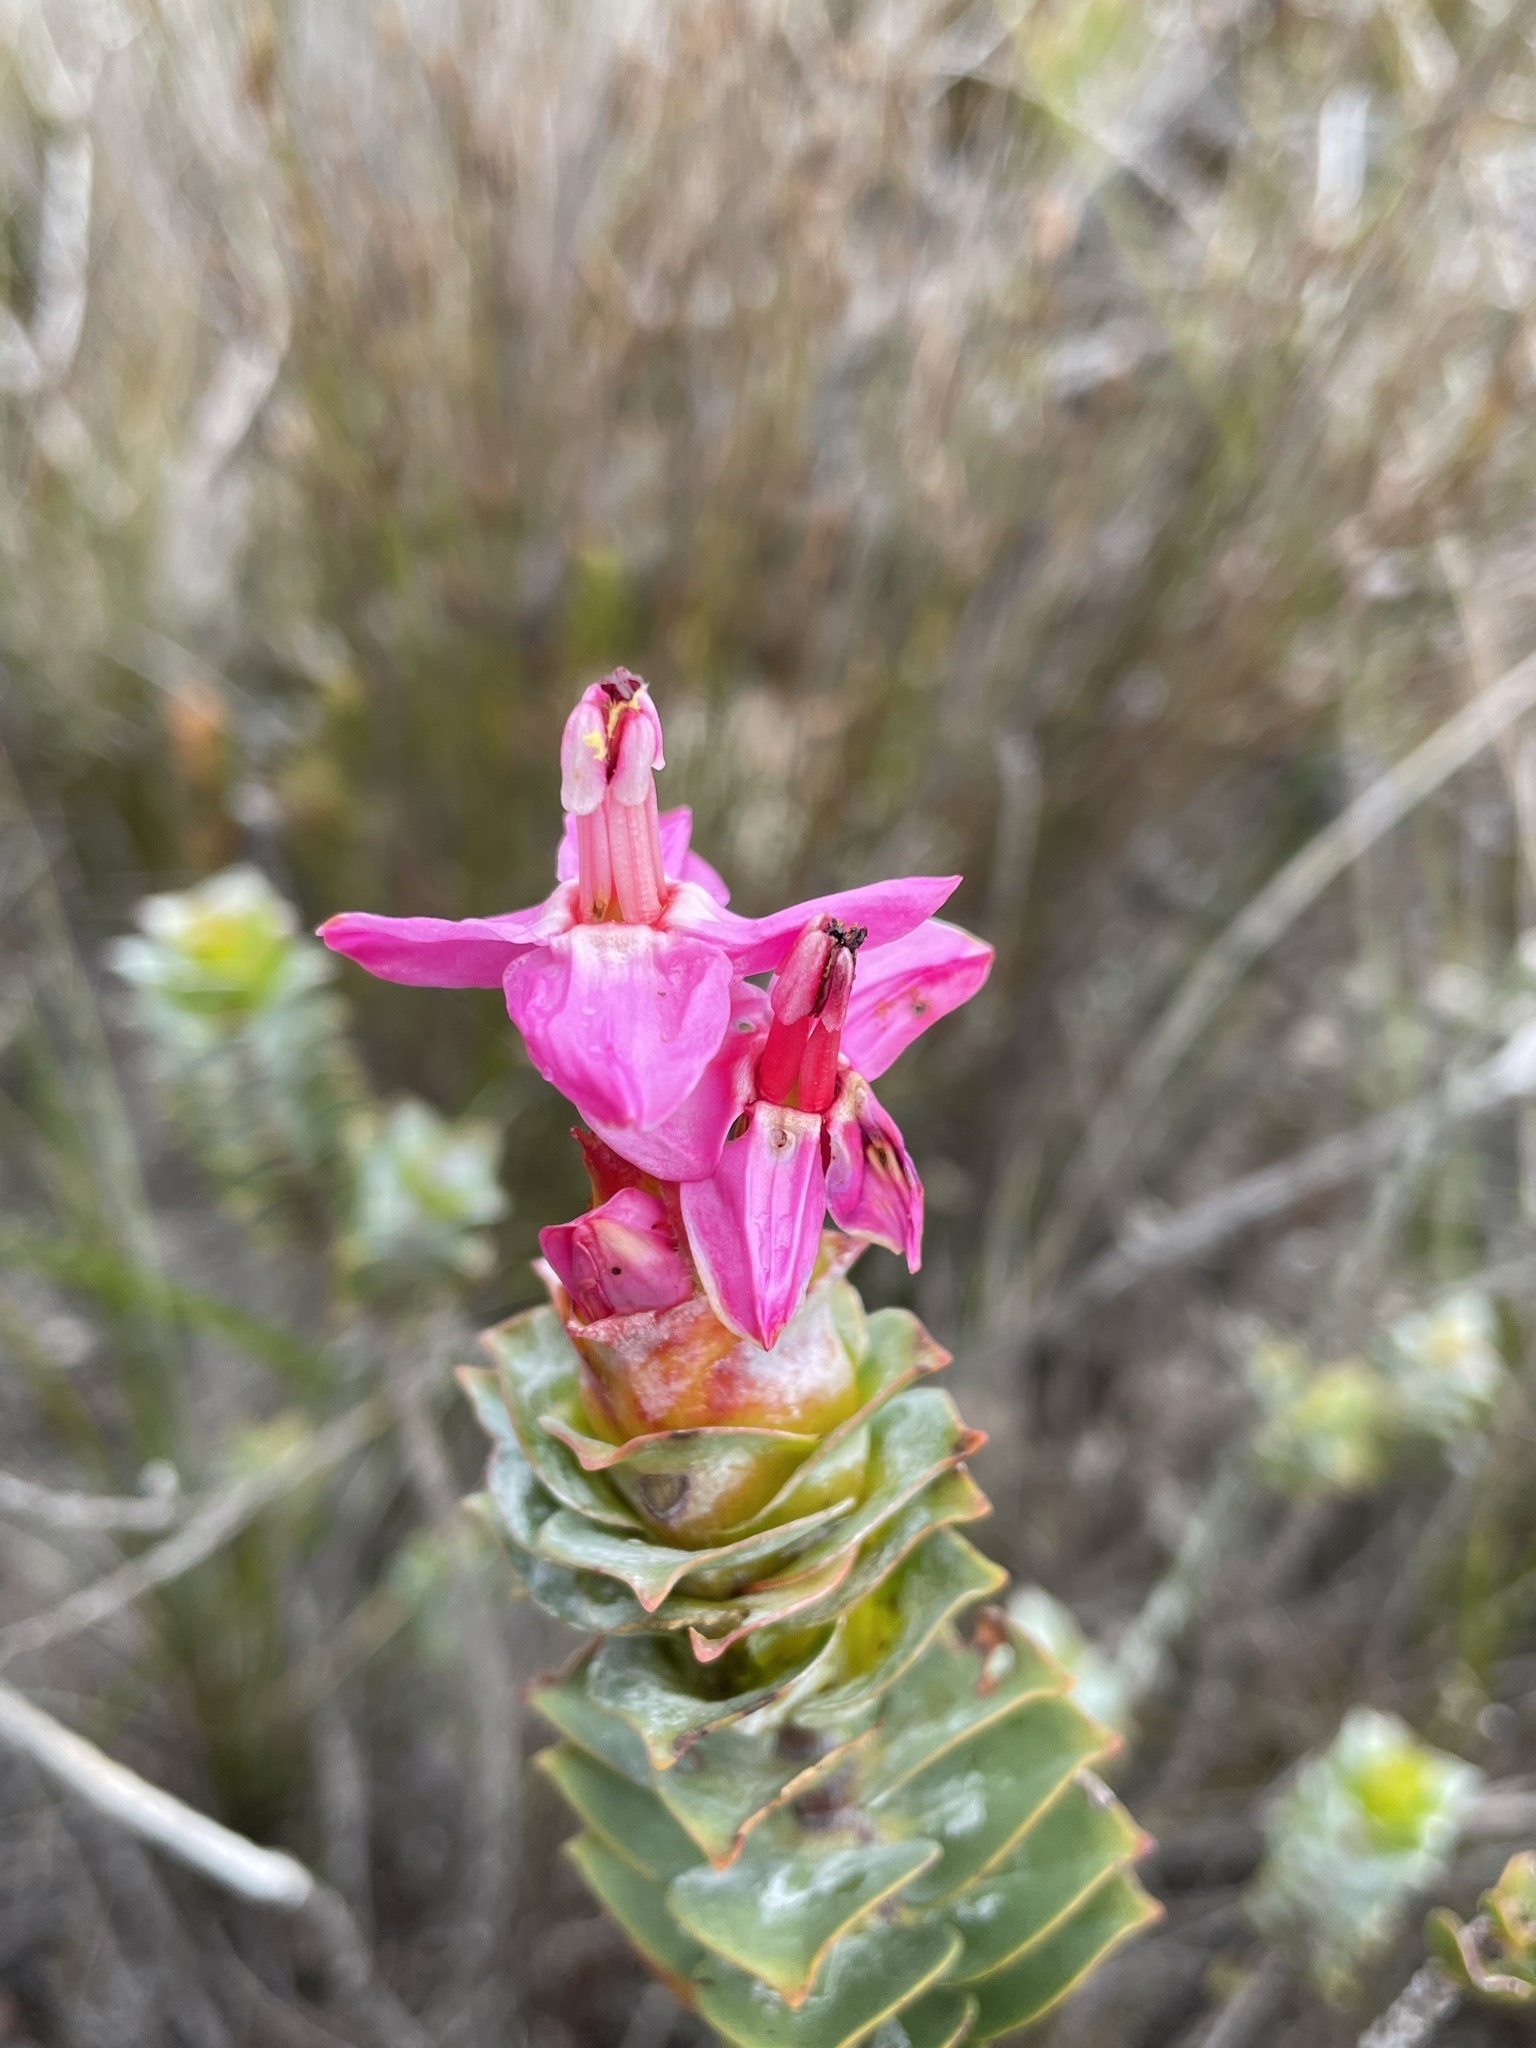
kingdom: Plantae
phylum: Tracheophyta
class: Magnoliopsida
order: Myrtales
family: Penaeaceae
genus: Saltera
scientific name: Saltera sarcocolla
